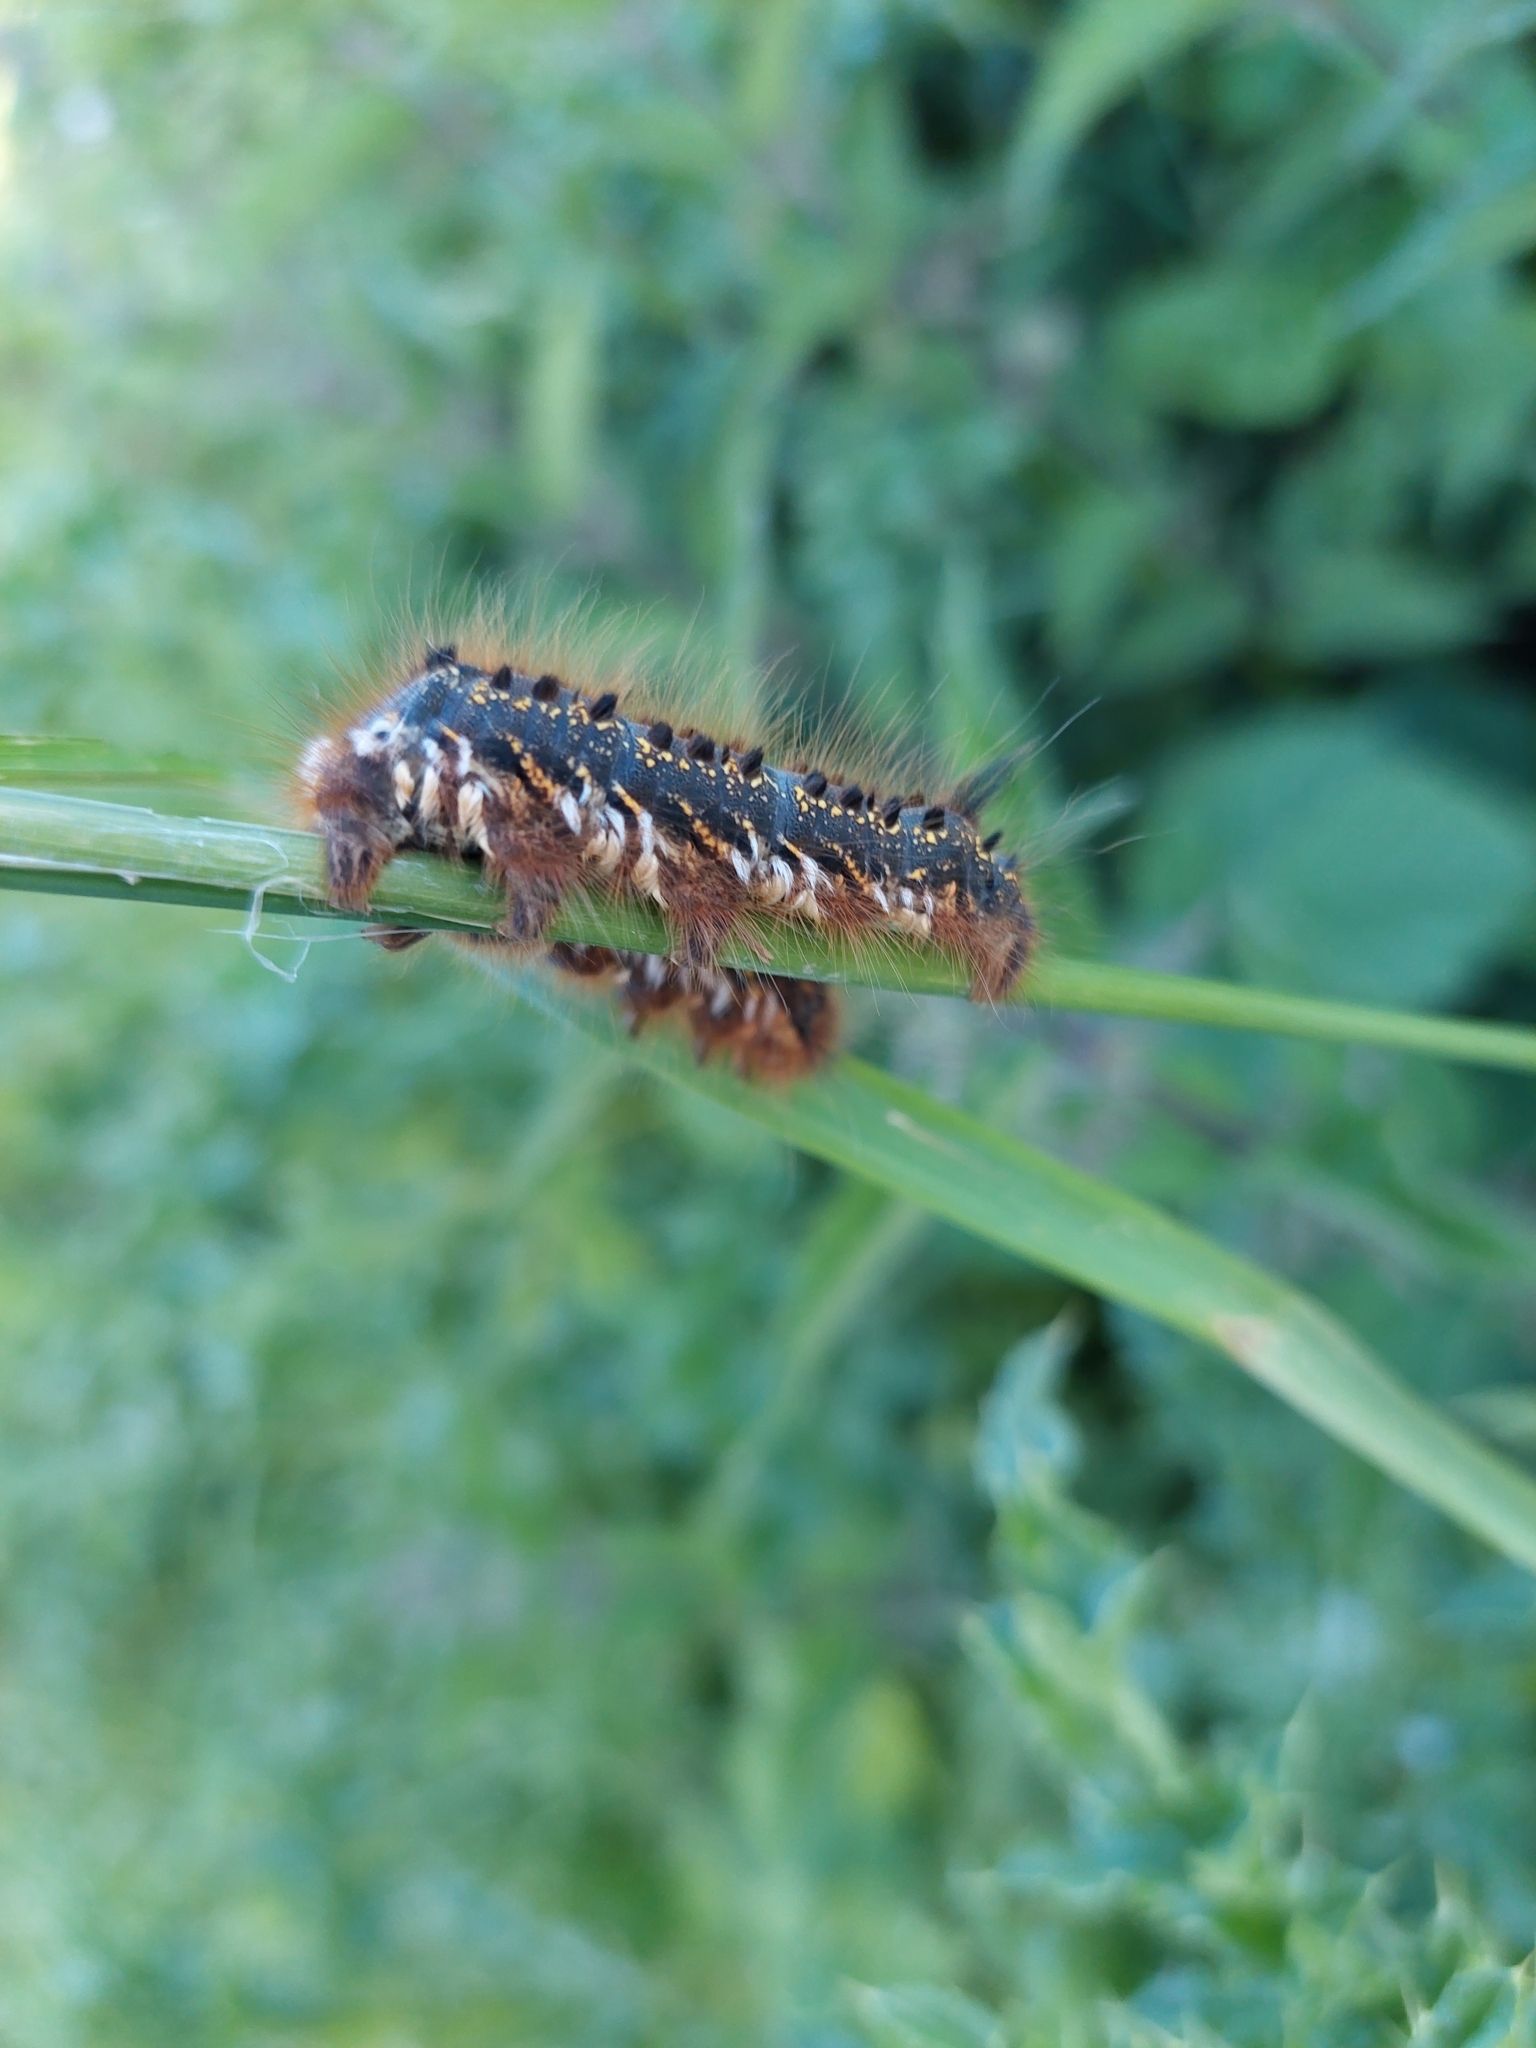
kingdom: Animalia
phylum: Arthropoda
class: Insecta
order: Lepidoptera
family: Lasiocampidae
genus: Euthrix
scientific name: Euthrix potatoria
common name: Drinker
